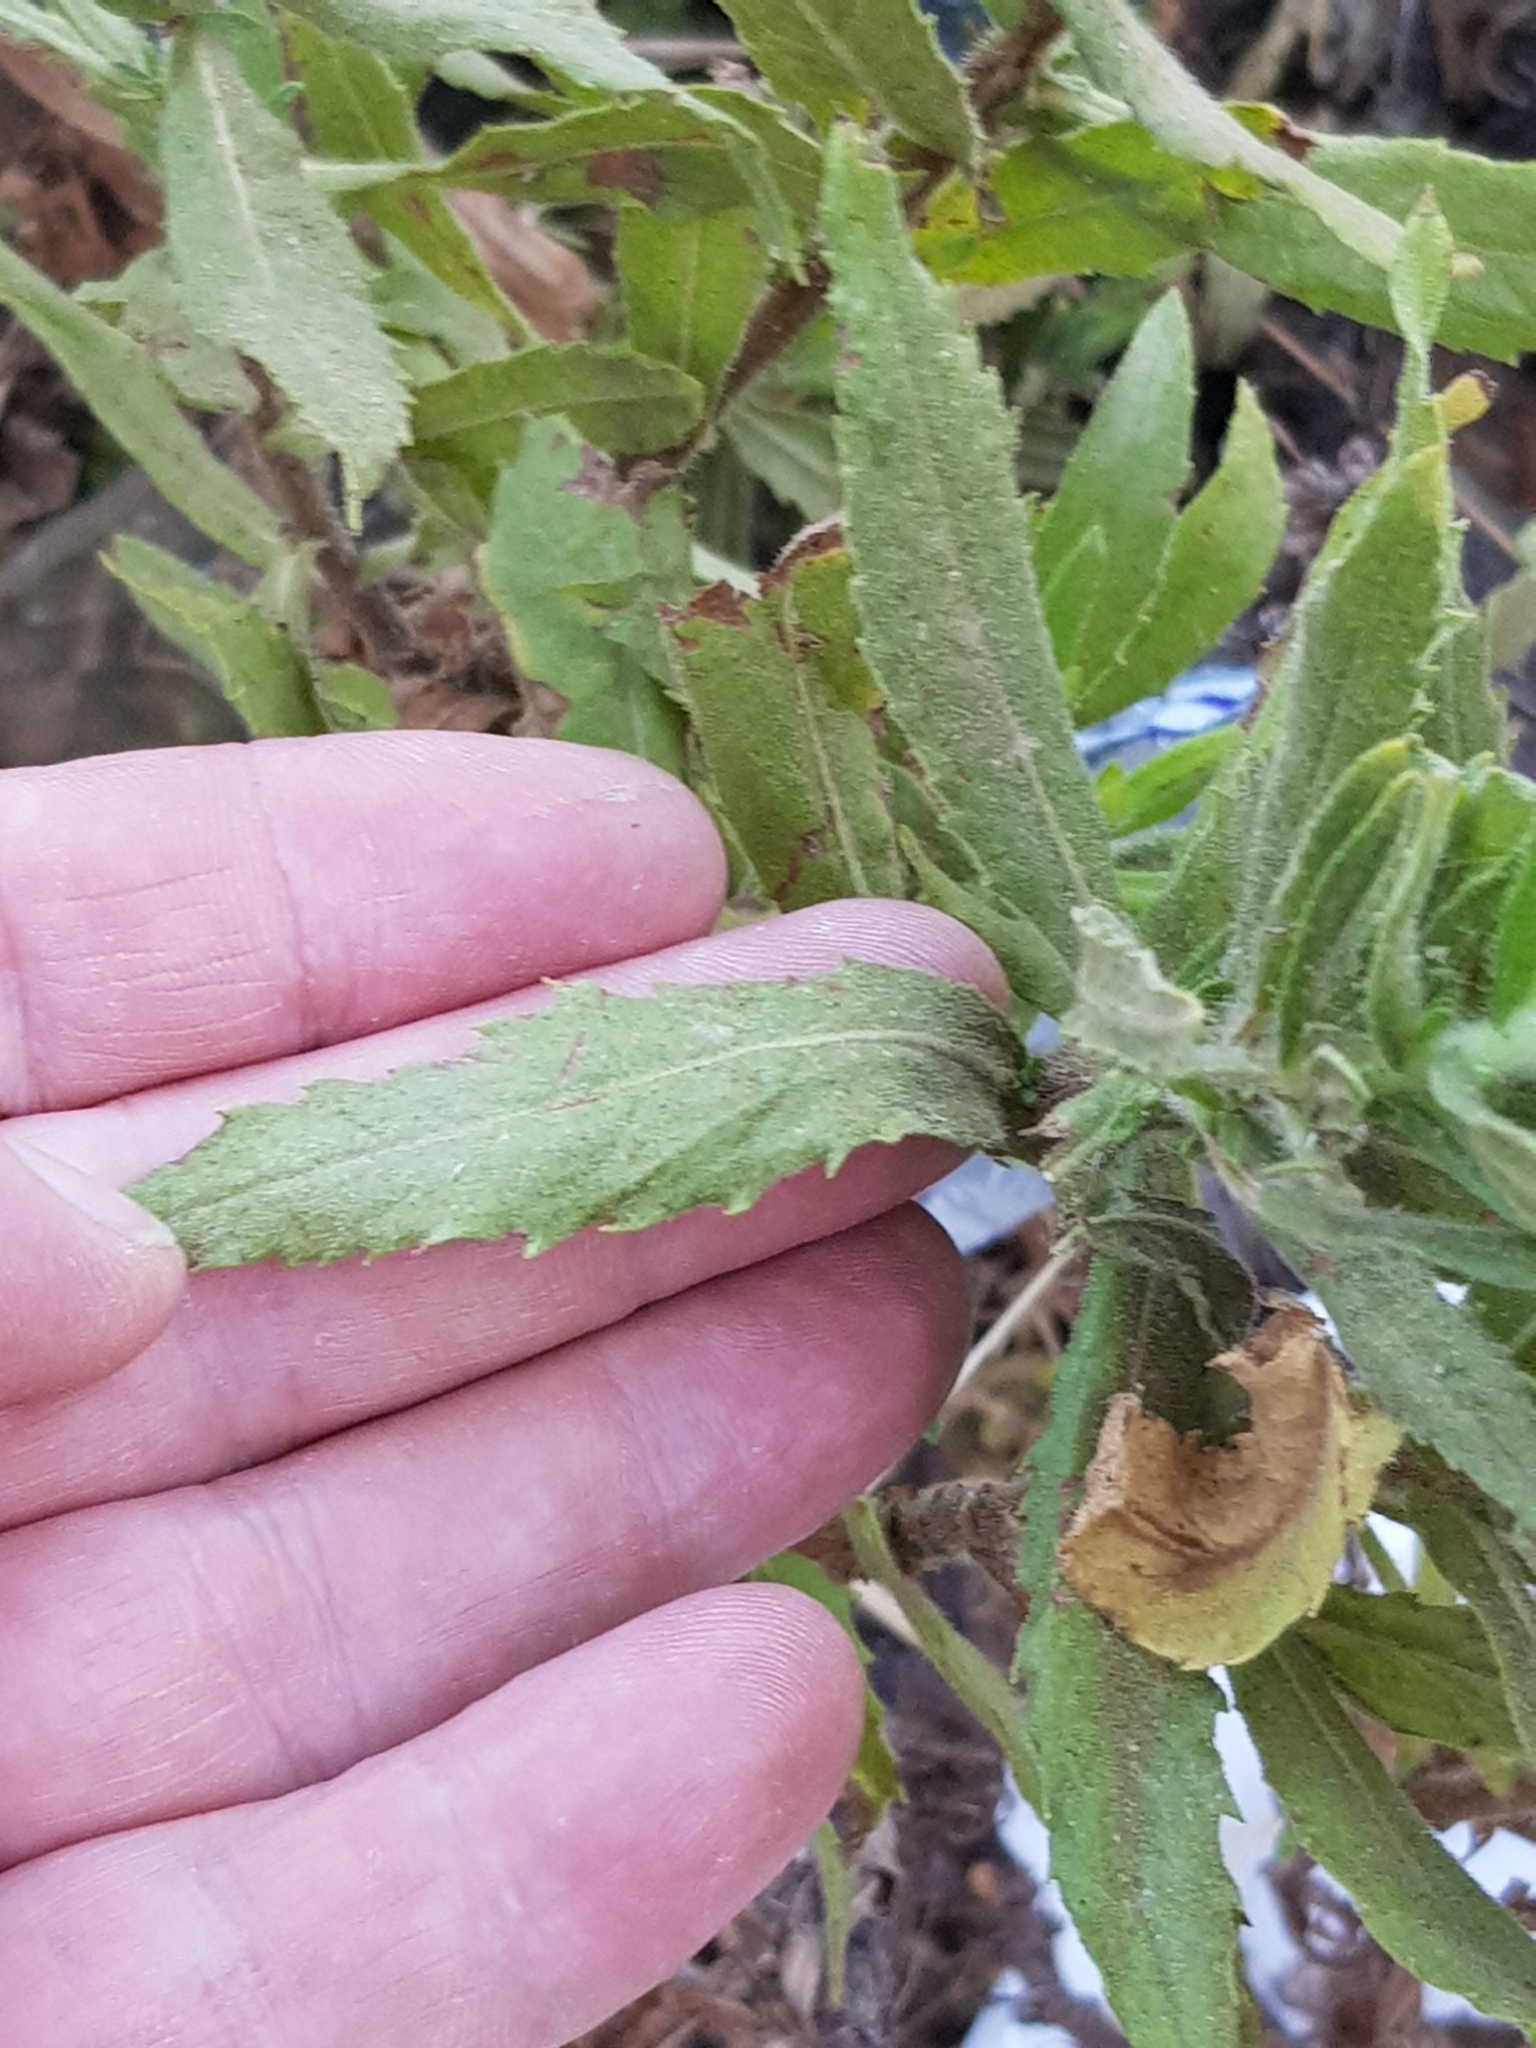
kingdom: Plantae
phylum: Tracheophyta
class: Magnoliopsida
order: Asterales
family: Asteraceae
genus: Dittrichia
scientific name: Dittrichia viscosa
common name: Woody fleabane
